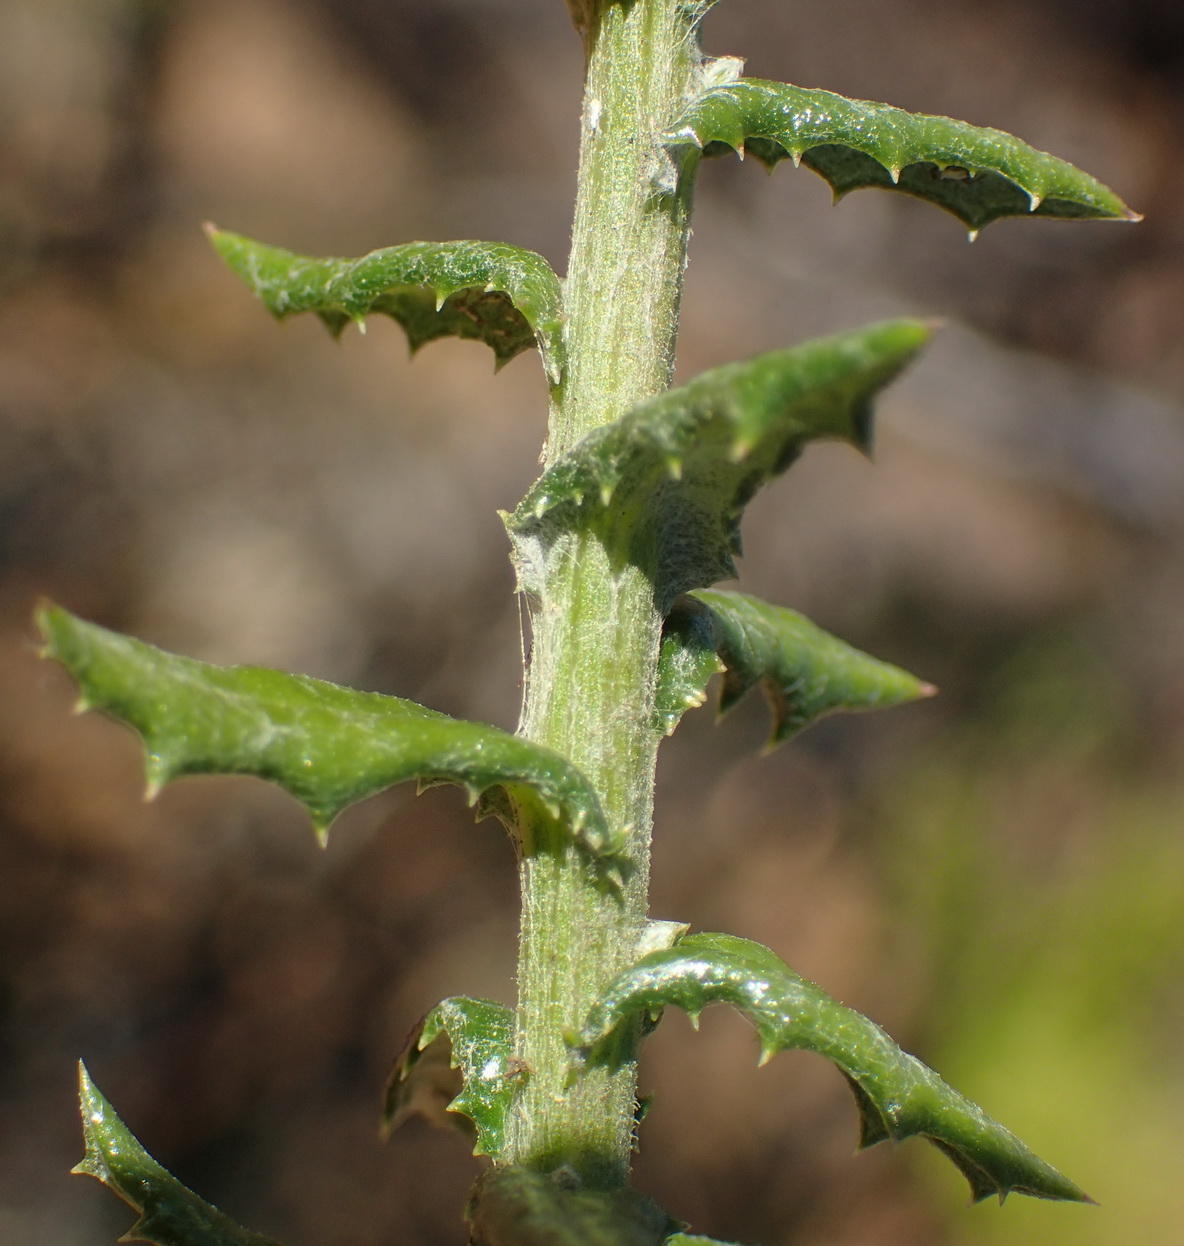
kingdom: Plantae
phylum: Tracheophyta
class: Magnoliopsida
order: Asterales
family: Asteraceae
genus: Senecio
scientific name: Senecio ilicifolius
